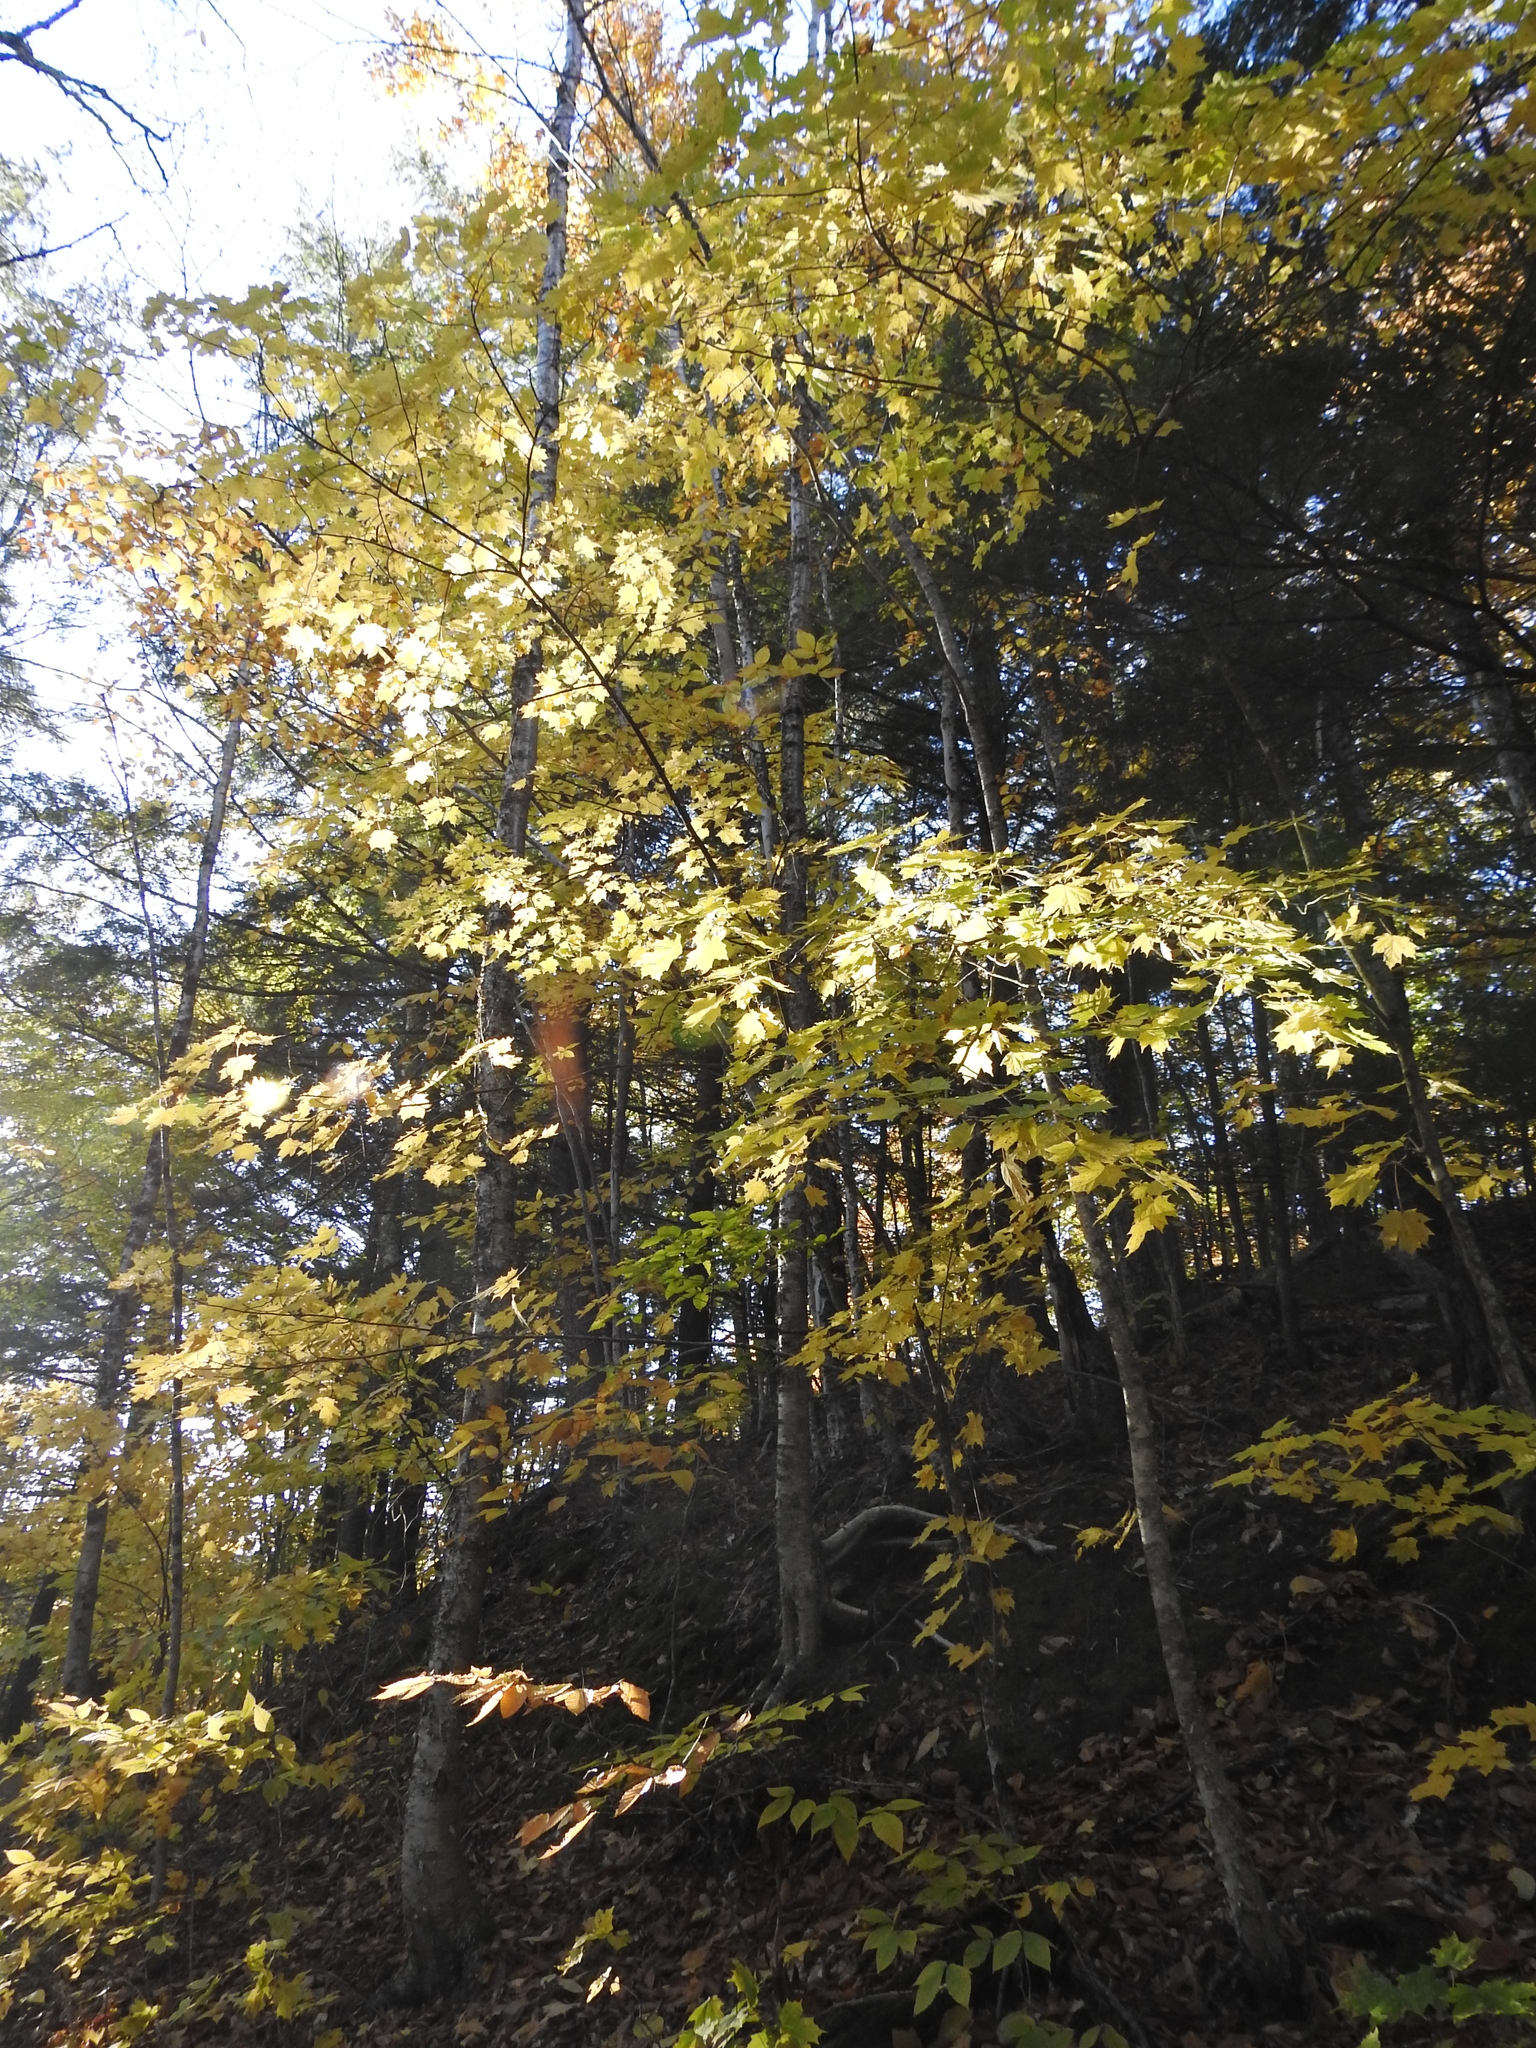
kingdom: Plantae
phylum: Tracheophyta
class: Magnoliopsida
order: Sapindales
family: Sapindaceae
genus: Acer
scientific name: Acer saccharum
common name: Sugar maple
